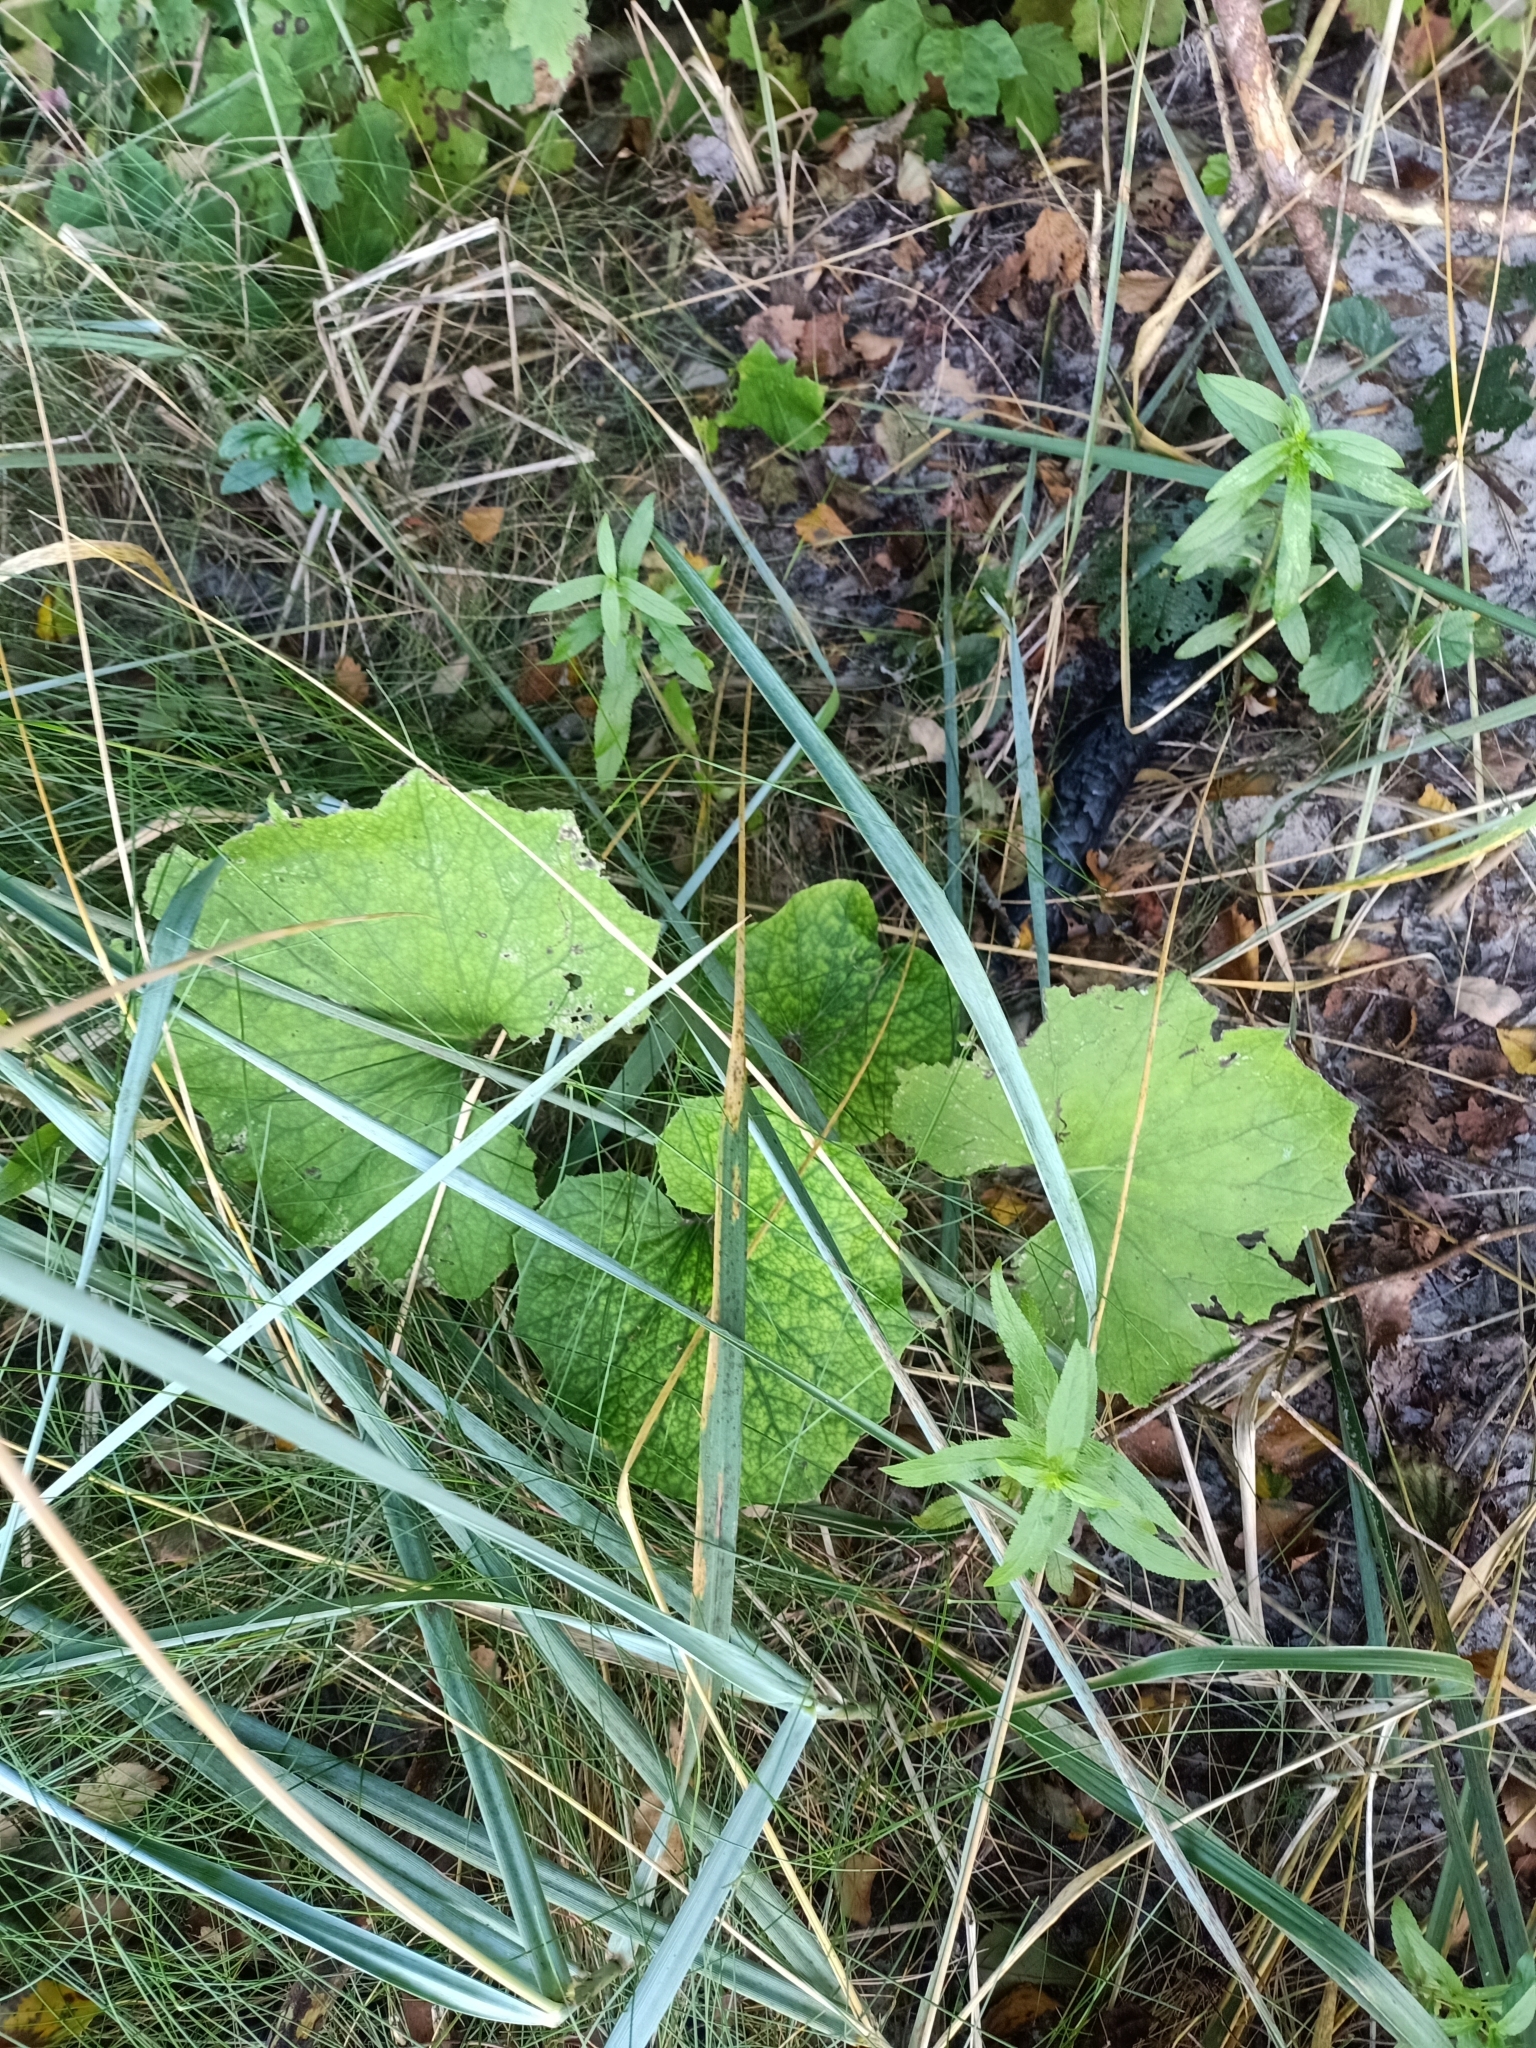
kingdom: Plantae
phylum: Tracheophyta
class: Magnoliopsida
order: Asterales
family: Asteraceae
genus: Tussilago
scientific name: Tussilago farfara
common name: Coltsfoot
